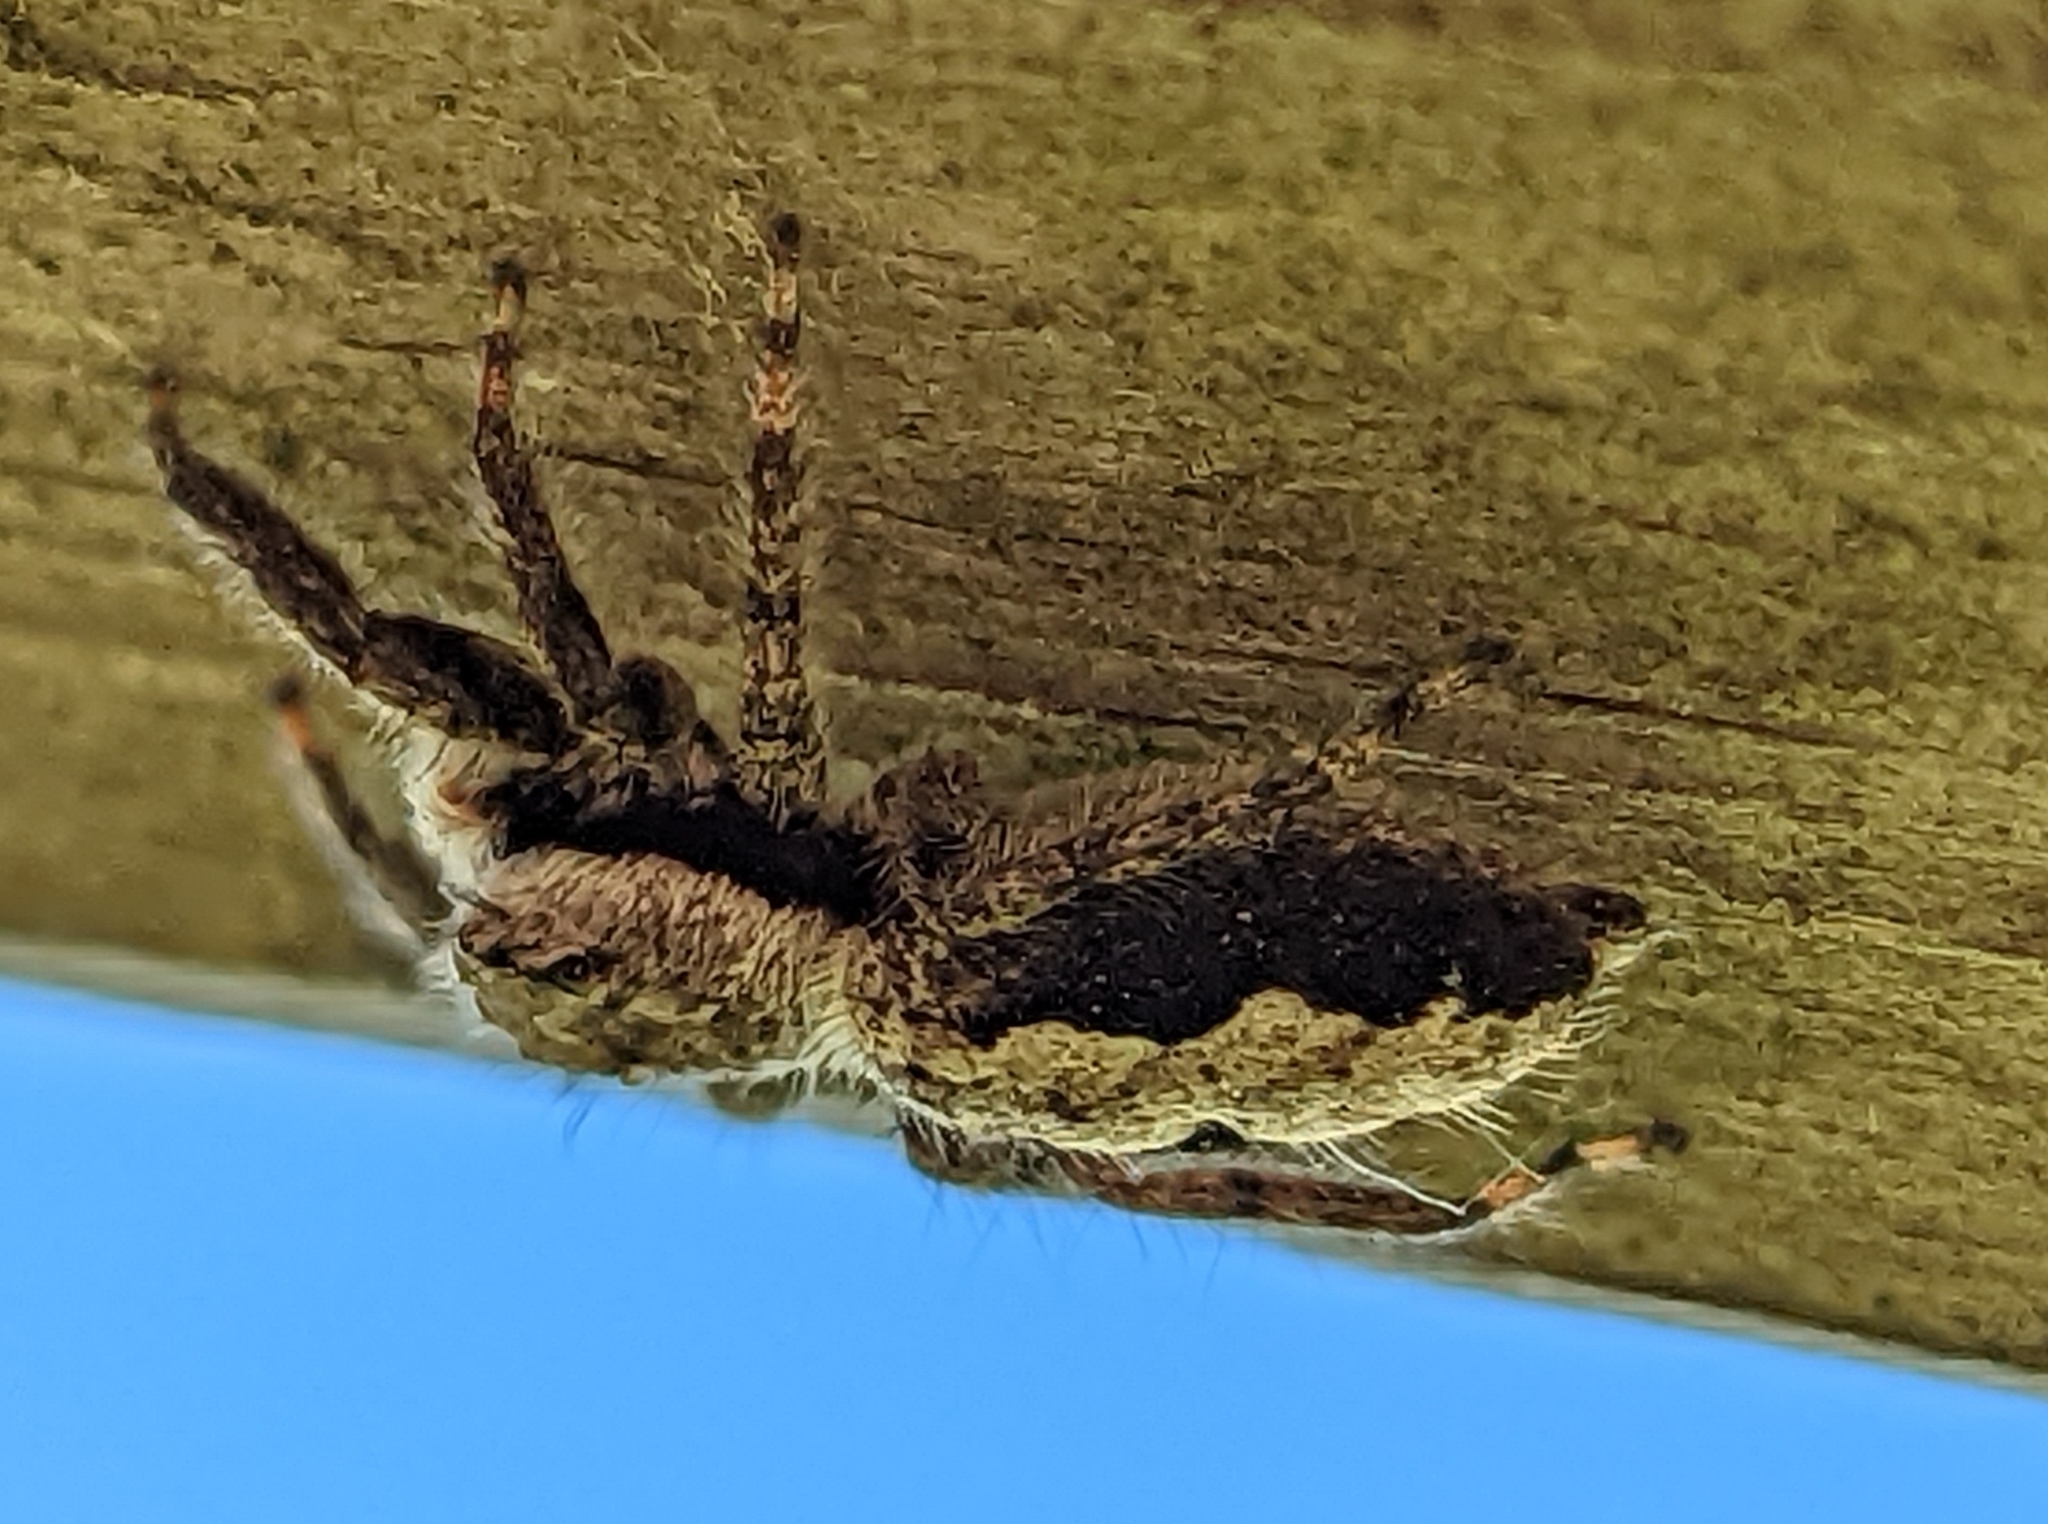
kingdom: Animalia
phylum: Arthropoda
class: Arachnida
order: Araneae
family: Salticidae
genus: Platycryptus
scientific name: Platycryptus undatus
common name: Tan jumping spider
